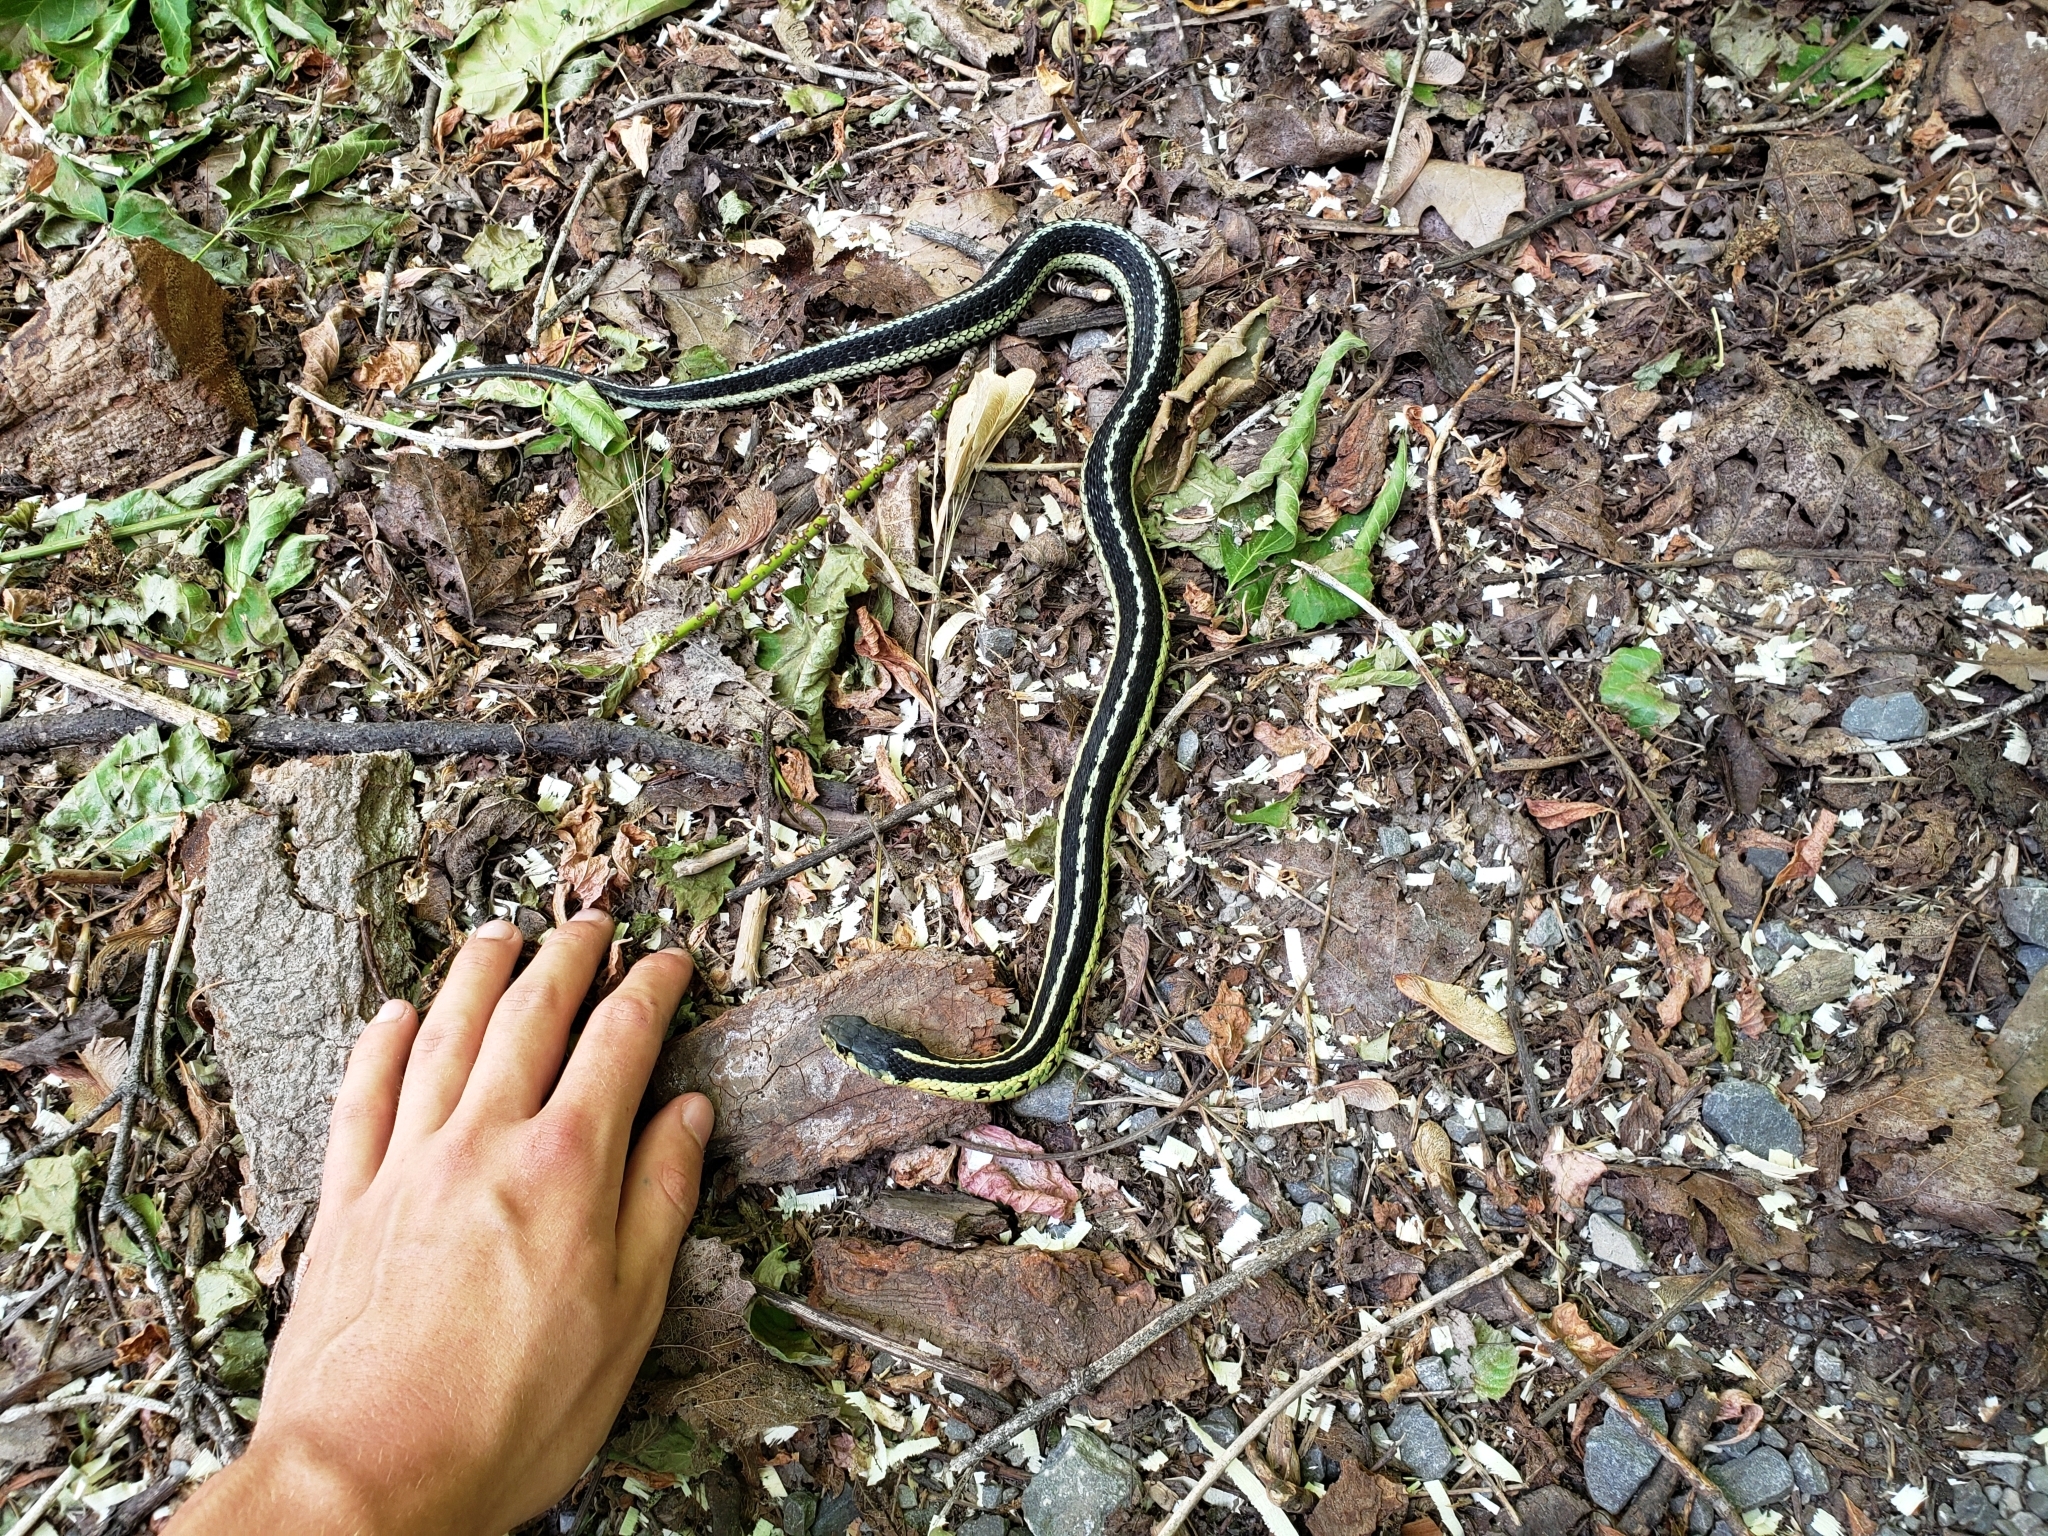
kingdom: Animalia
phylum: Chordata
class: Squamata
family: Colubridae
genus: Thamnophis
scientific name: Thamnophis sirtalis
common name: Common garter snake
